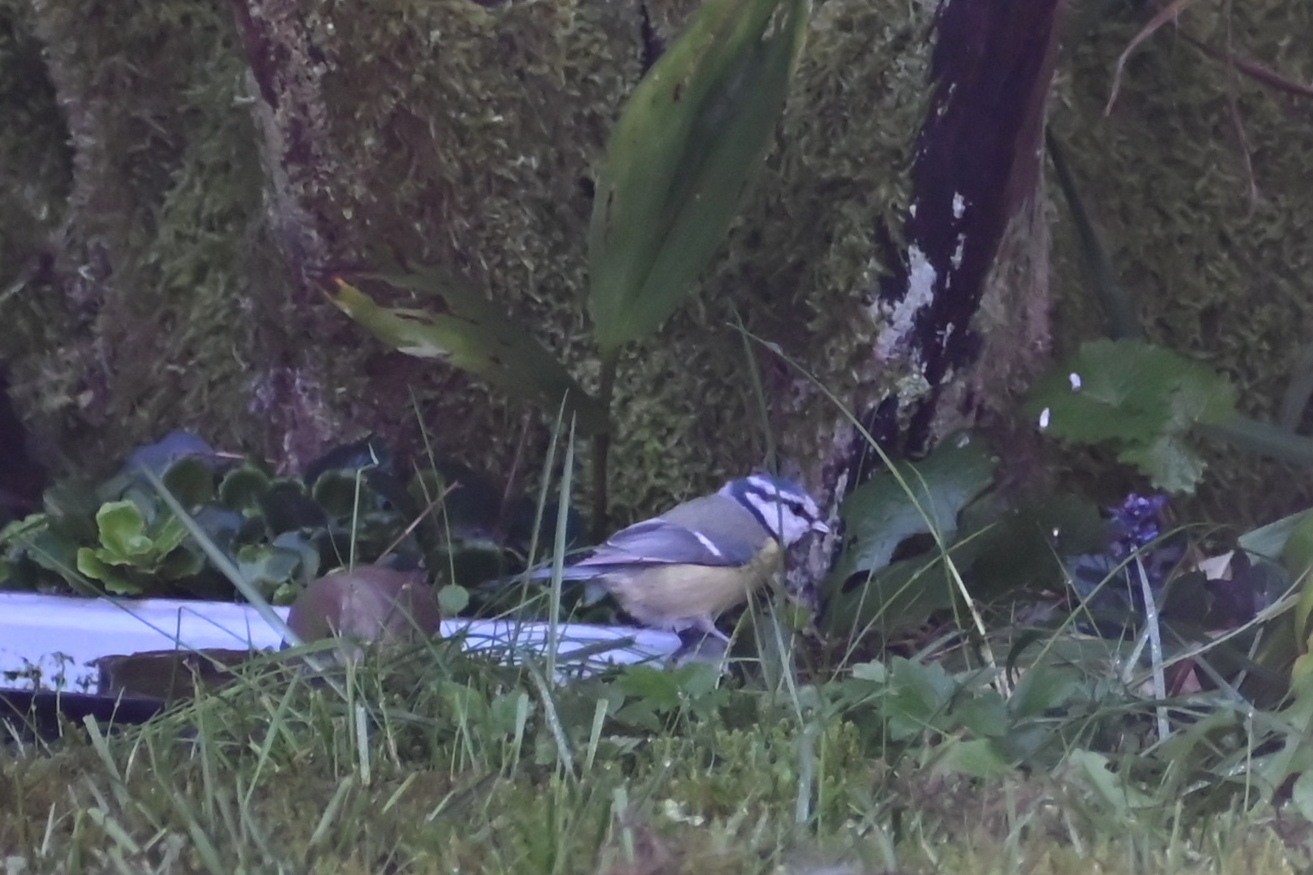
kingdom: Animalia
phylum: Chordata
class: Aves
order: Passeriformes
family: Paridae
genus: Cyanistes
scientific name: Cyanistes caeruleus
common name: Eurasian blue tit
